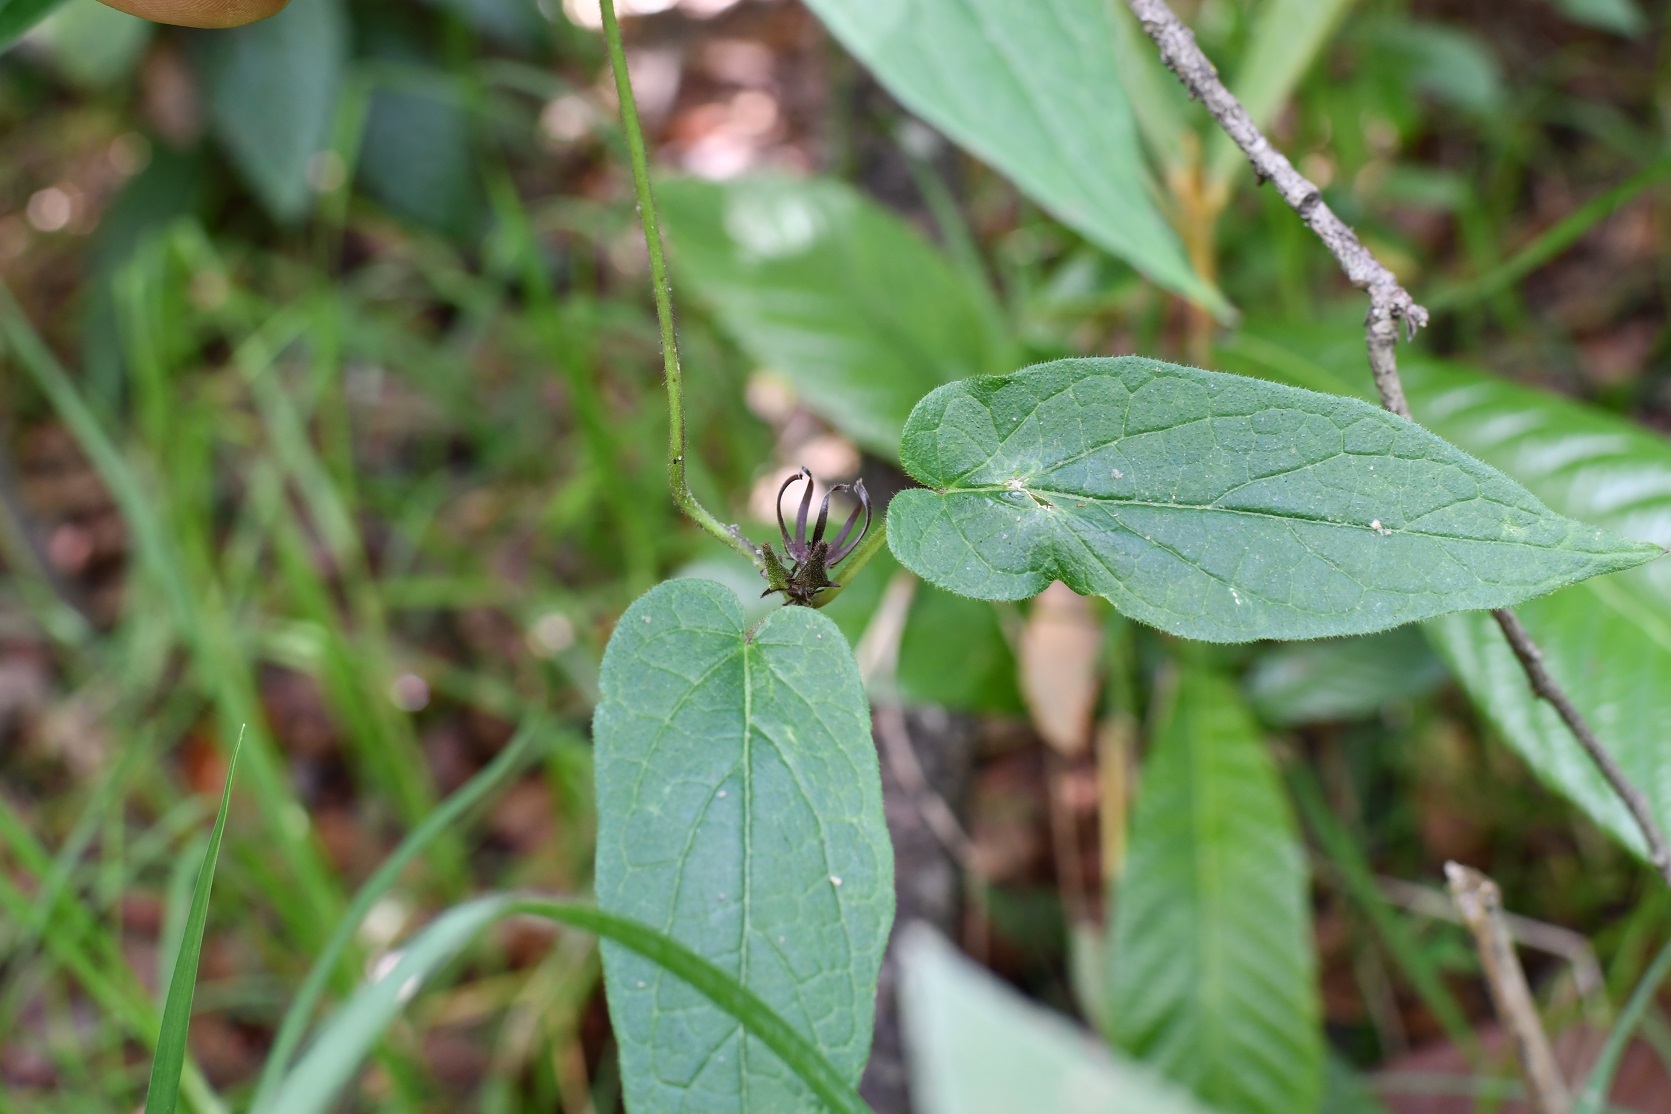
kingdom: Plantae
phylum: Tracheophyta
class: Magnoliopsida
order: Gentianales
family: Apocynaceae
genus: Matelea
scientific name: Matelea medusae
